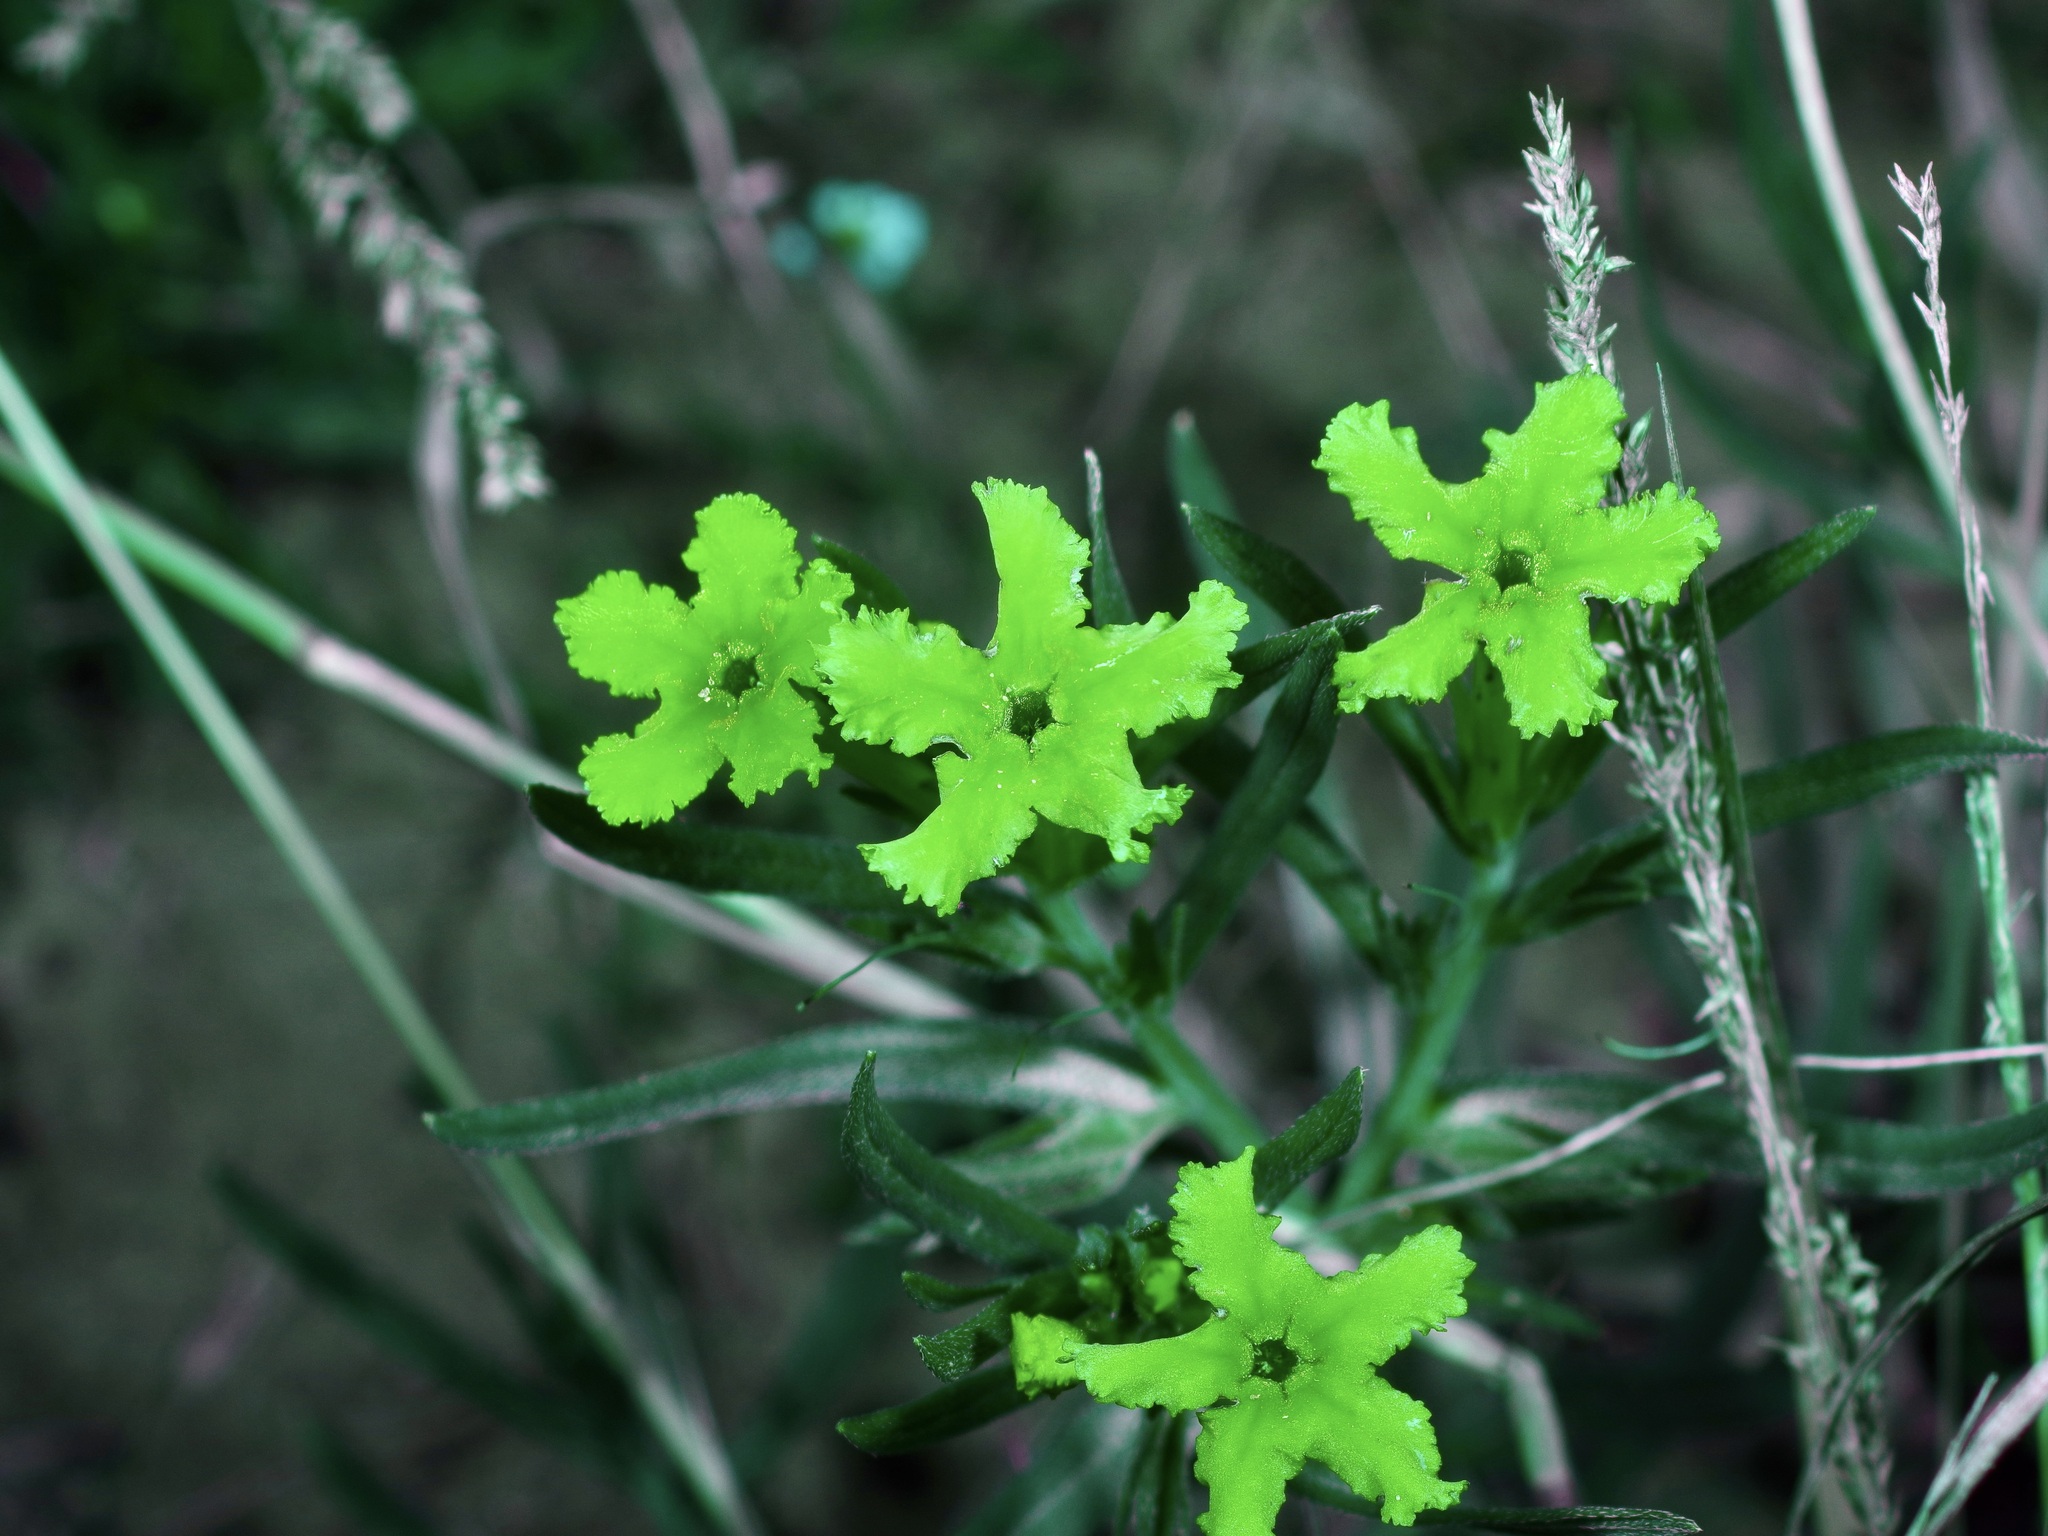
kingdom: Plantae
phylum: Tracheophyta
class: Magnoliopsida
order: Boraginales
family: Boraginaceae
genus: Lithospermum
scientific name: Lithospermum incisum
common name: Fringed gromwell
